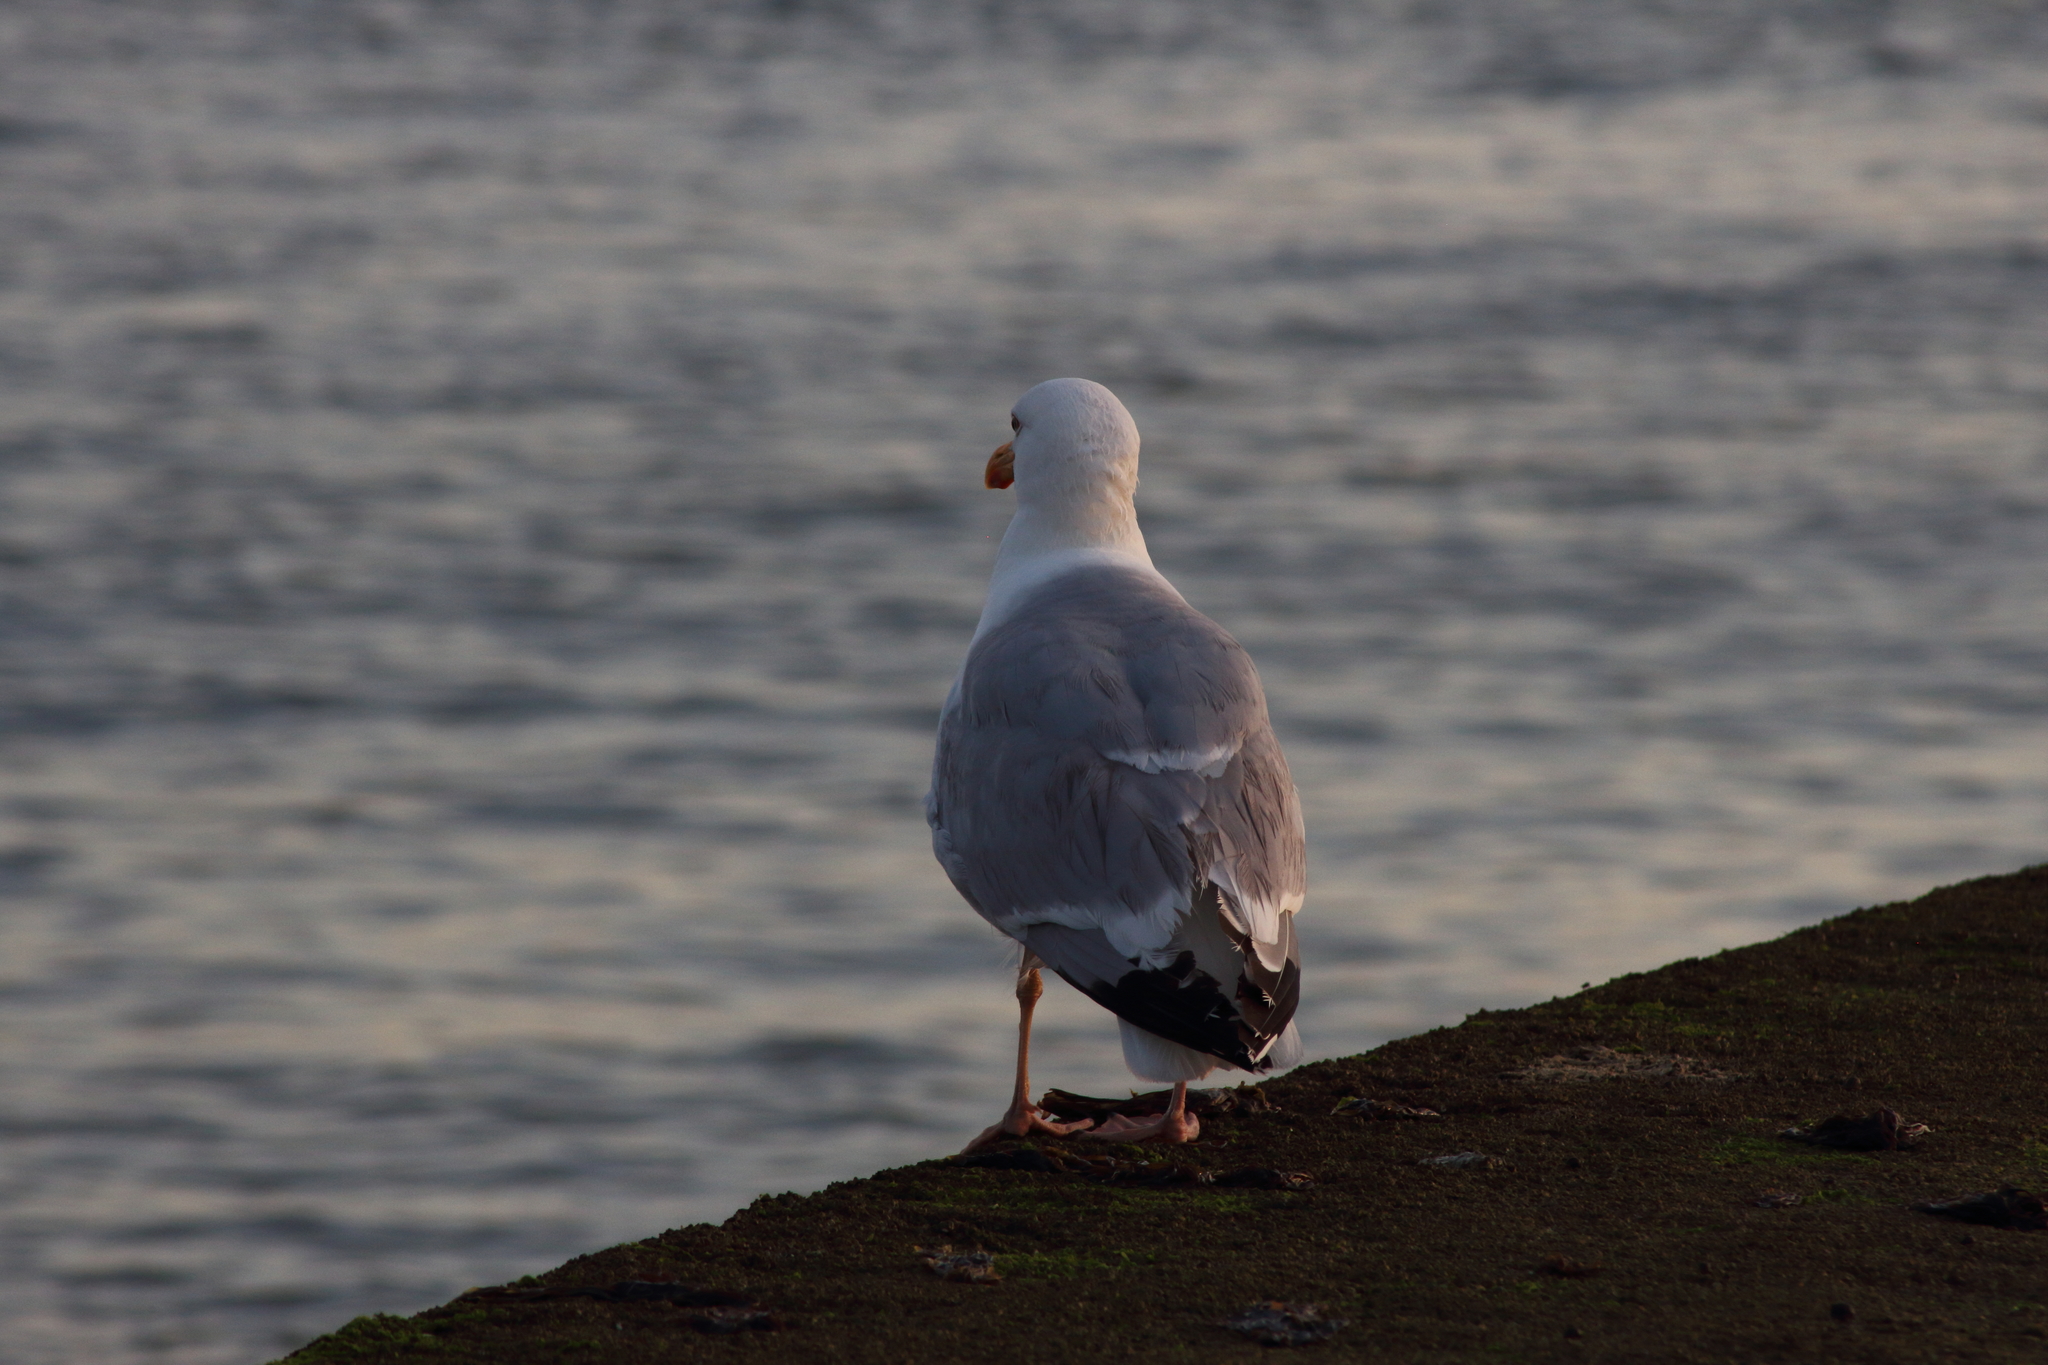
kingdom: Animalia
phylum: Chordata
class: Aves
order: Charadriiformes
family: Laridae
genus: Larus
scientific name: Larus argentatus
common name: Herring gull
